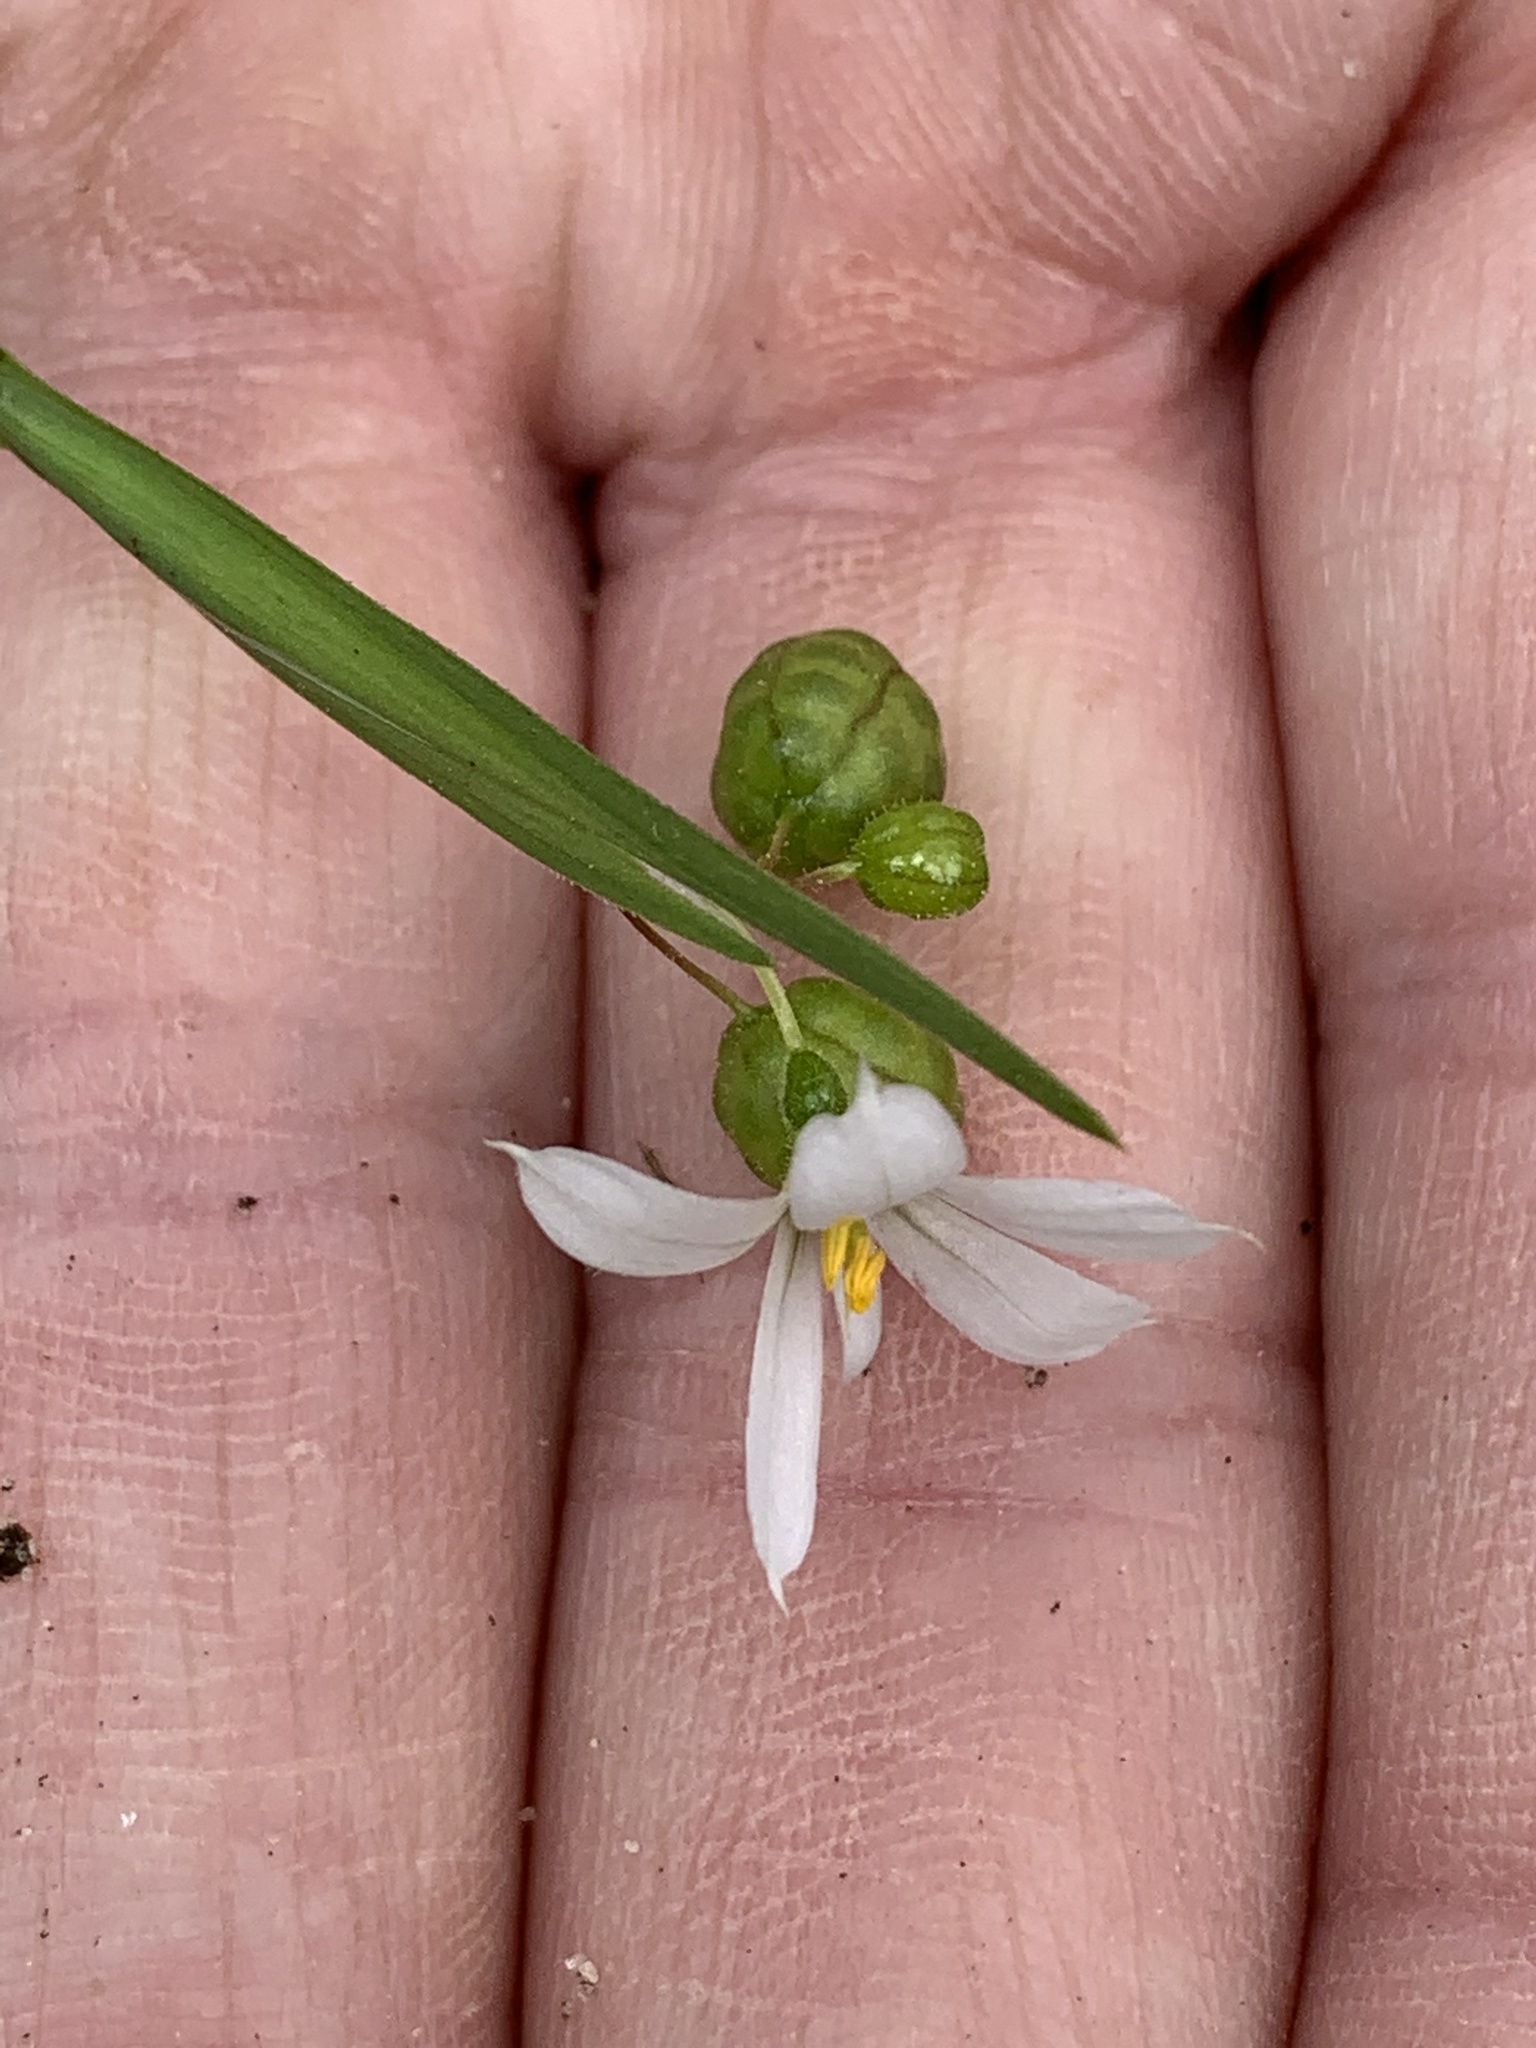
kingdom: Plantae
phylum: Tracheophyta
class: Liliopsida
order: Asparagales
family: Iridaceae
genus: Sisyrinchium
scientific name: Sisyrinchium angustifolium
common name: Narrow-leaf blue-eyed-grass
